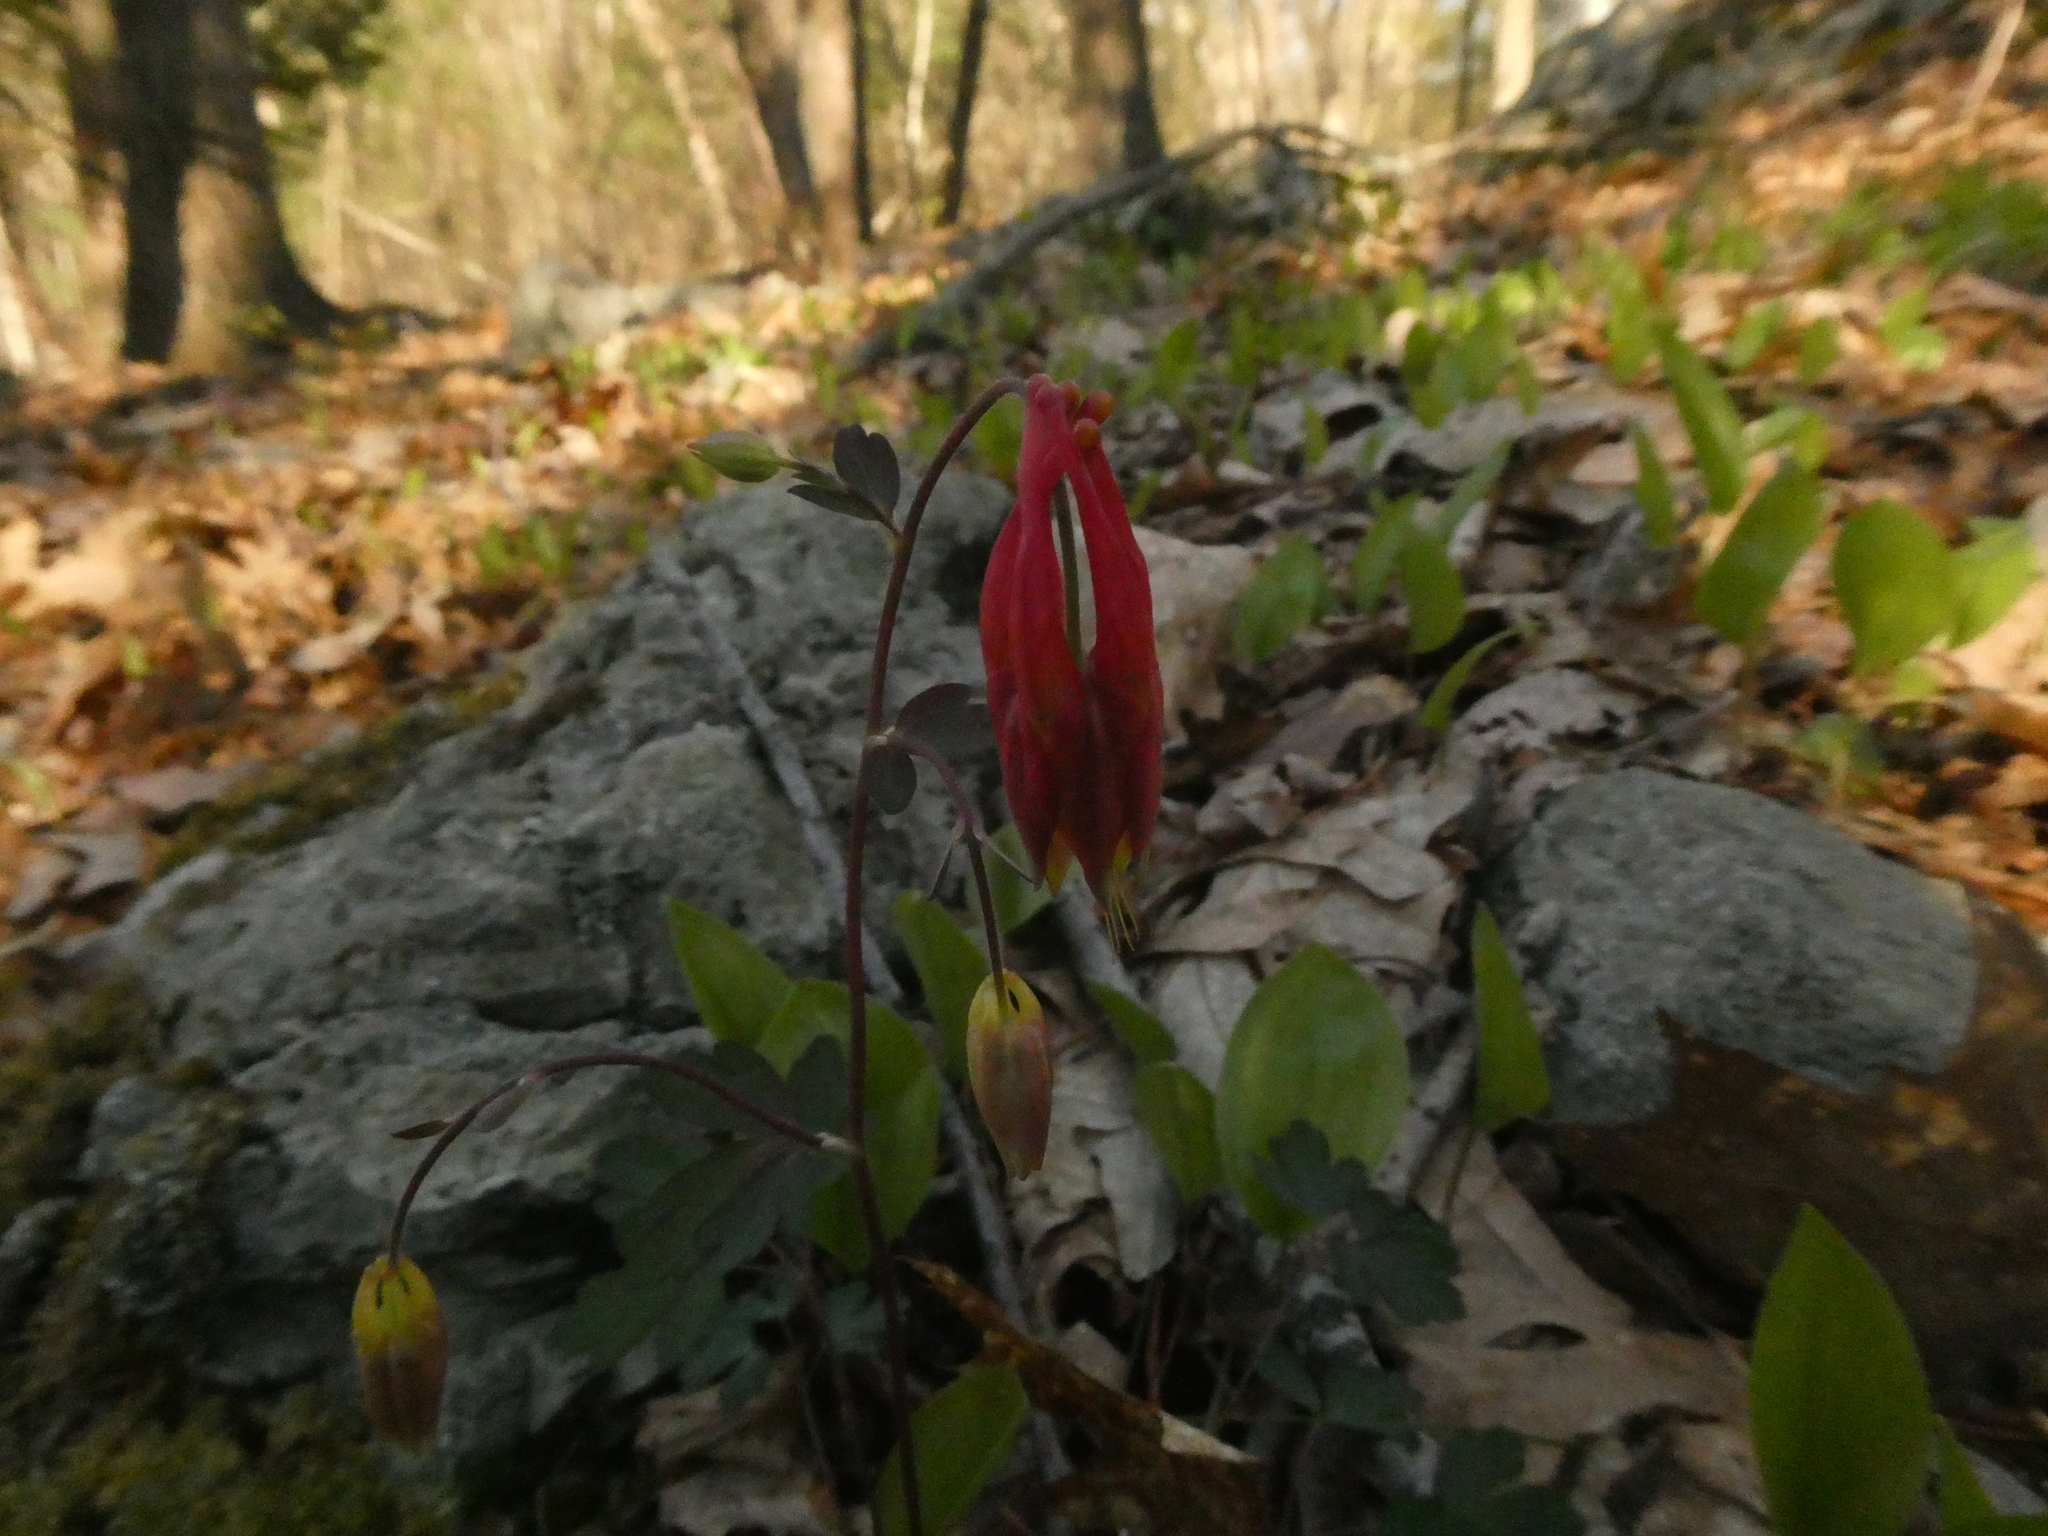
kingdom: Plantae
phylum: Tracheophyta
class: Magnoliopsida
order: Ranunculales
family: Ranunculaceae
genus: Aquilegia
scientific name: Aquilegia canadensis
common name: American columbine
